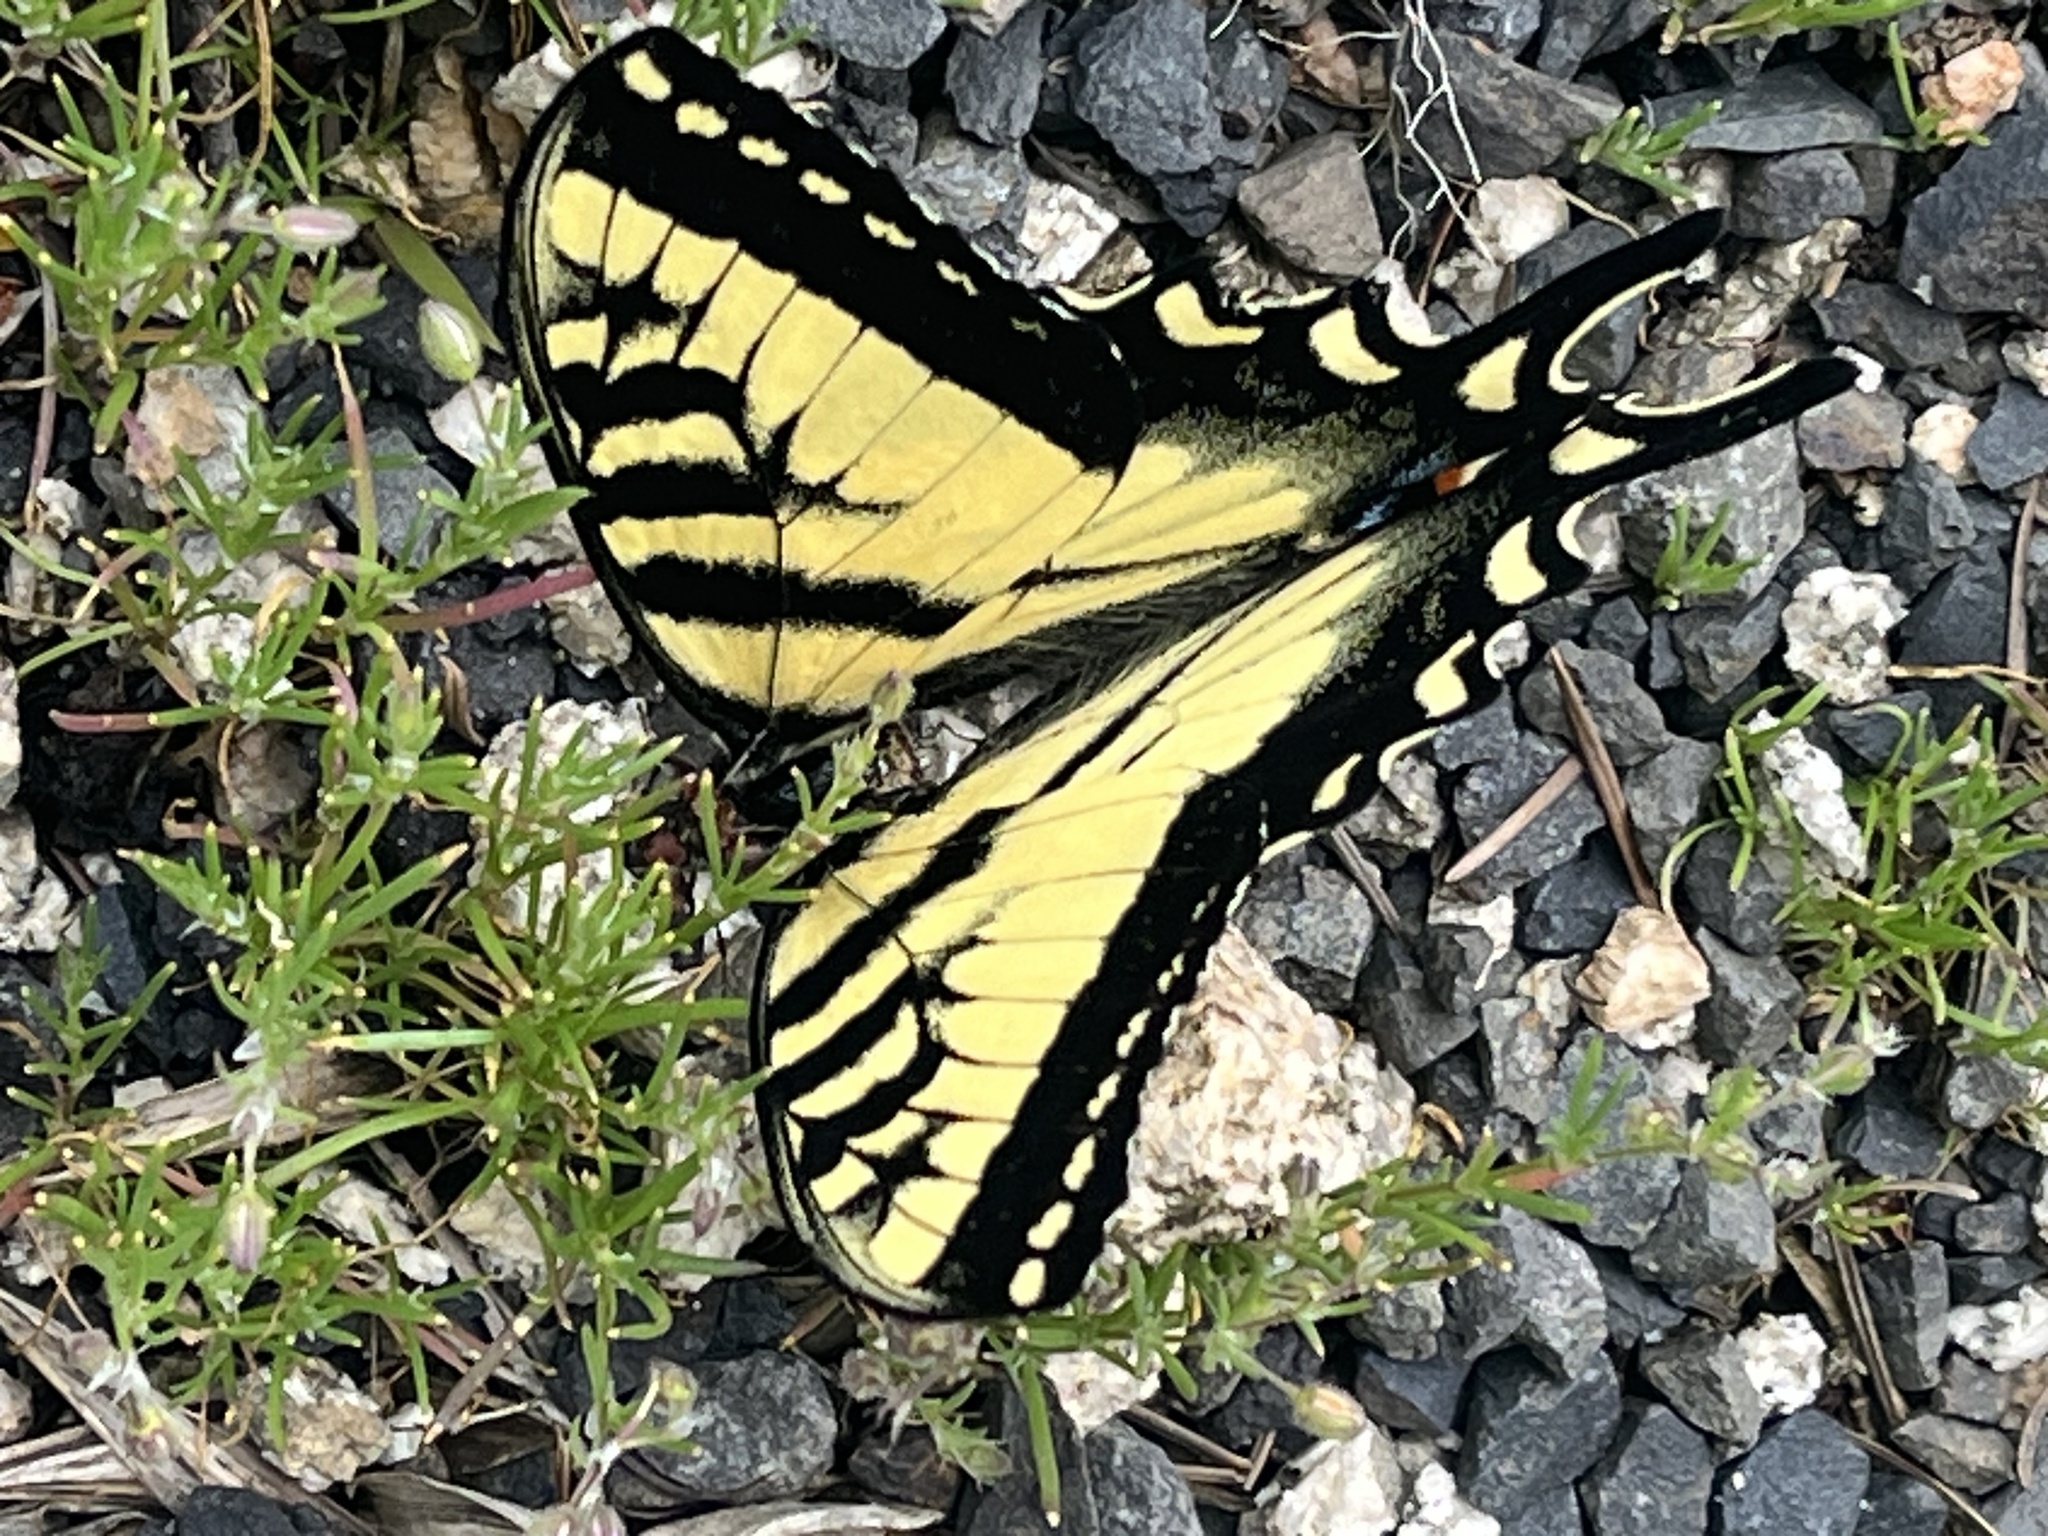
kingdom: Animalia
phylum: Arthropoda
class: Insecta
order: Lepidoptera
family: Papilionidae
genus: Papilio
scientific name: Papilio rutulus
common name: Western tiger swallowtail
